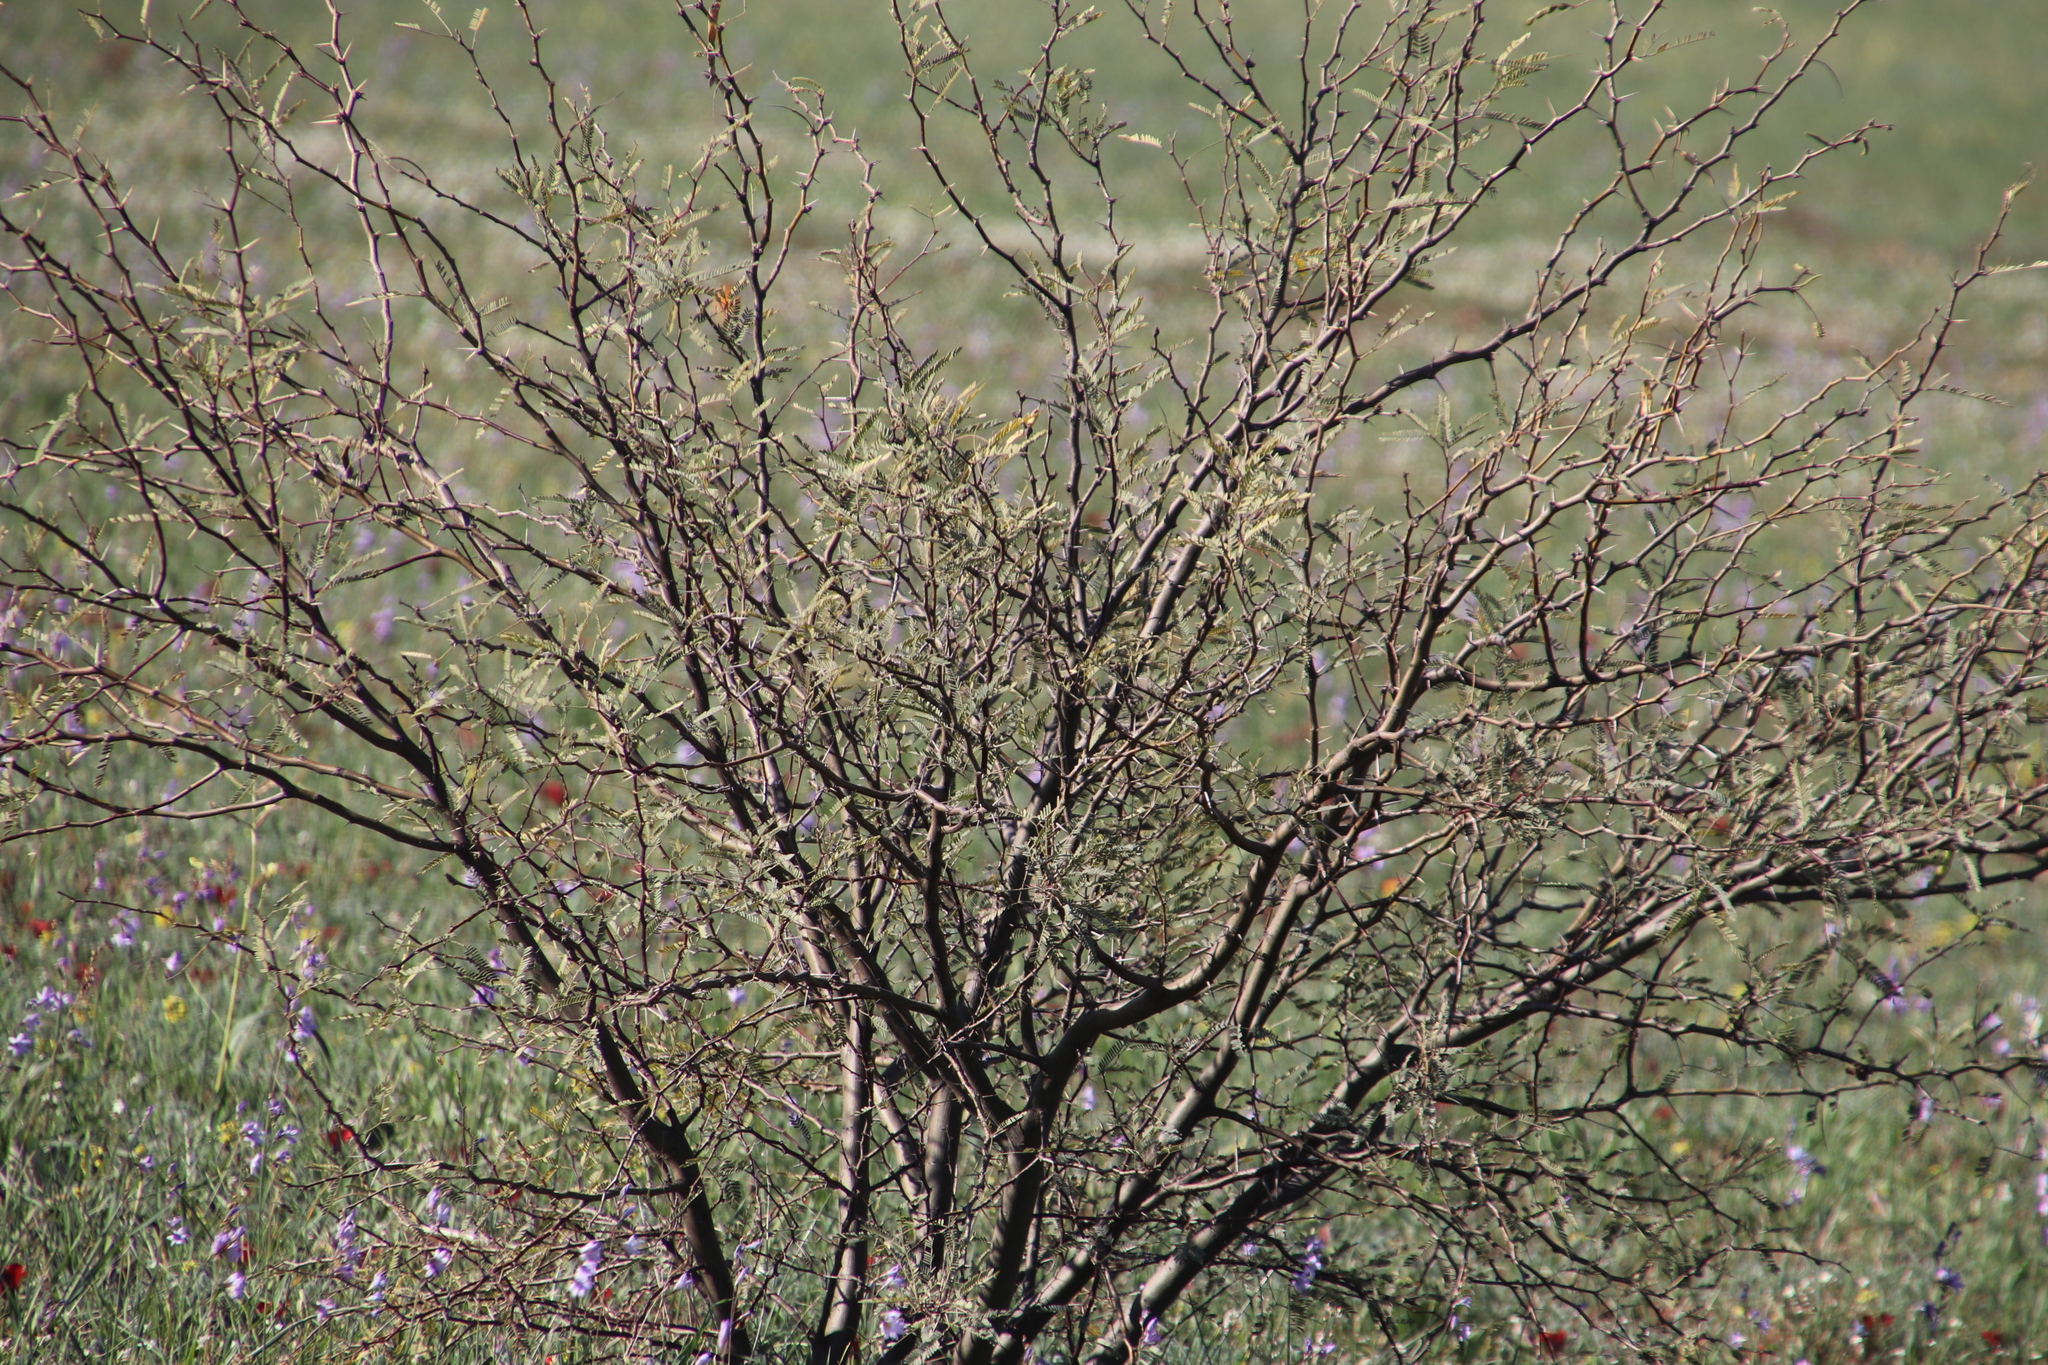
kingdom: Plantae
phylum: Tracheophyta
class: Magnoliopsida
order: Fabales
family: Fabaceae
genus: Prosopis
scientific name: Prosopis pubescens
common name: Screw-bean
